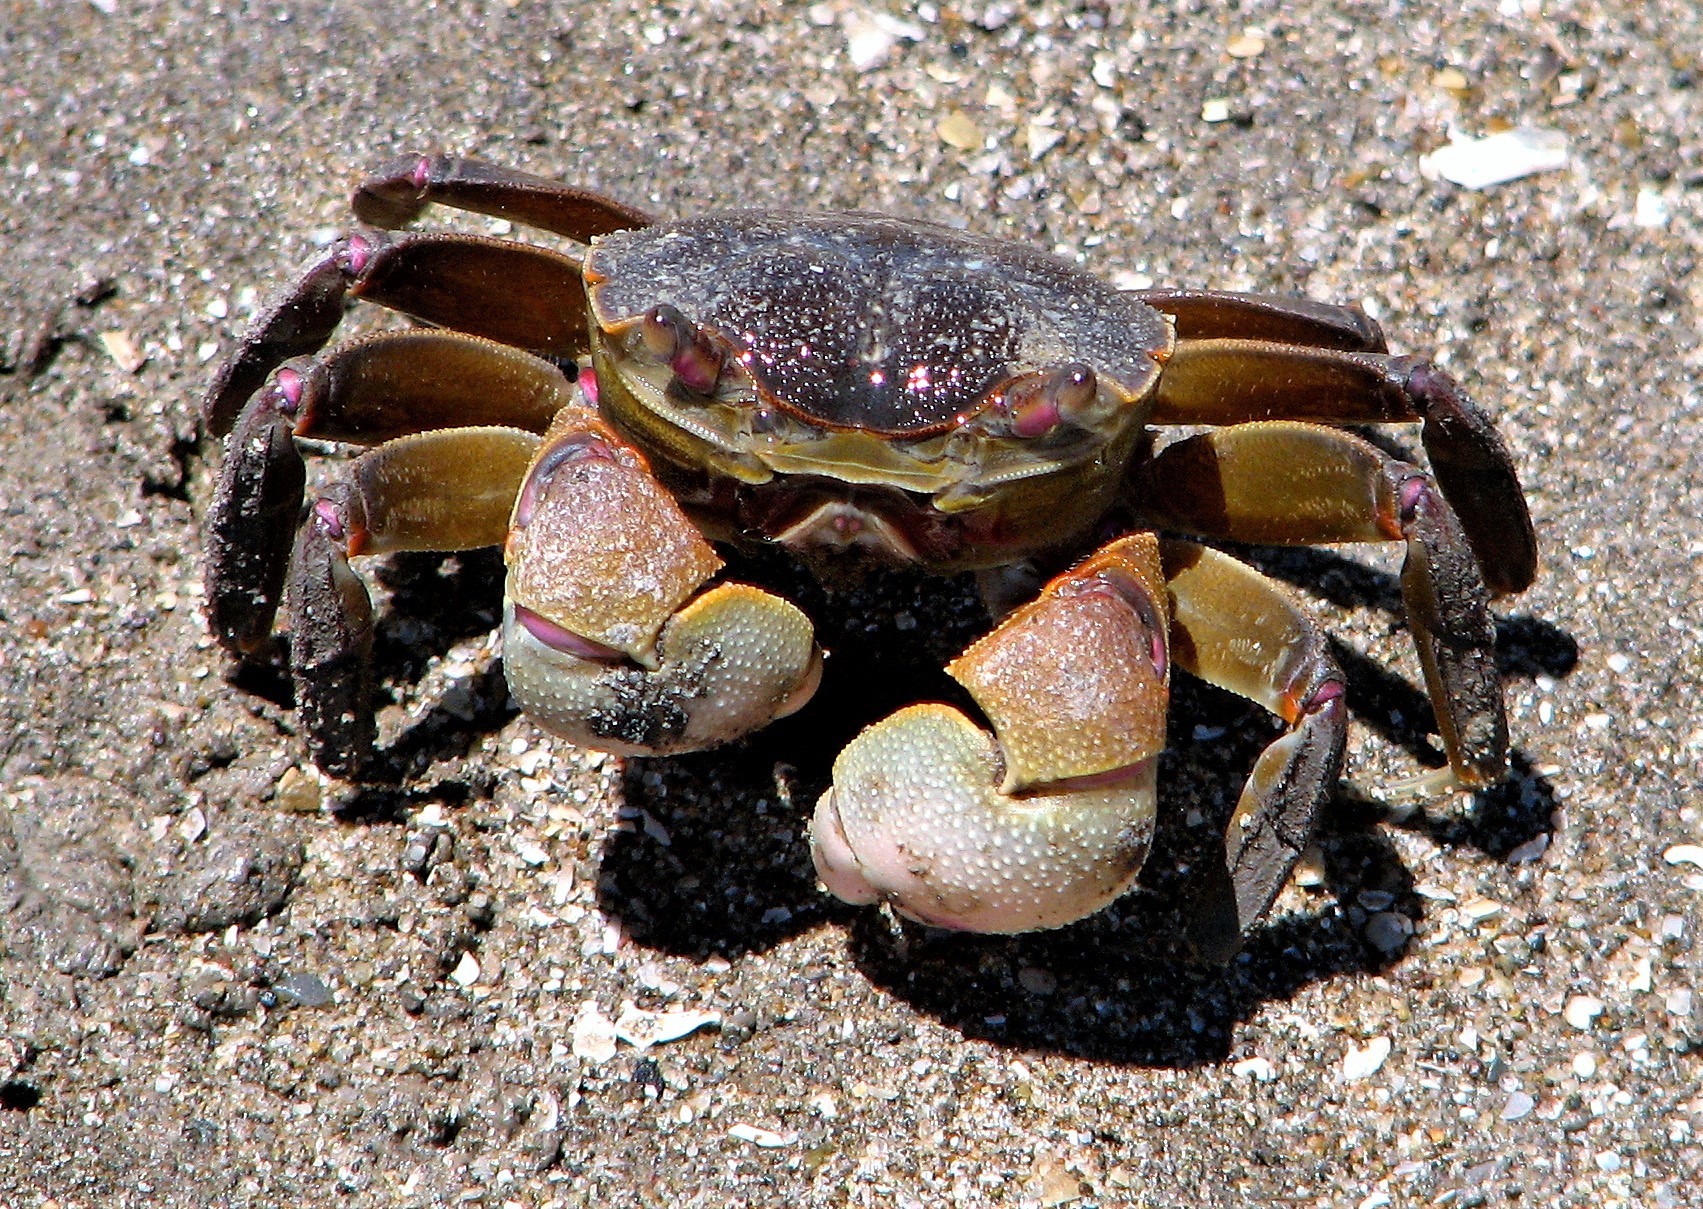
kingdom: Animalia
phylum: Arthropoda
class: Malacostraca
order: Decapoda
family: Varunidae
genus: Neohelice
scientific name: Neohelice granulata
